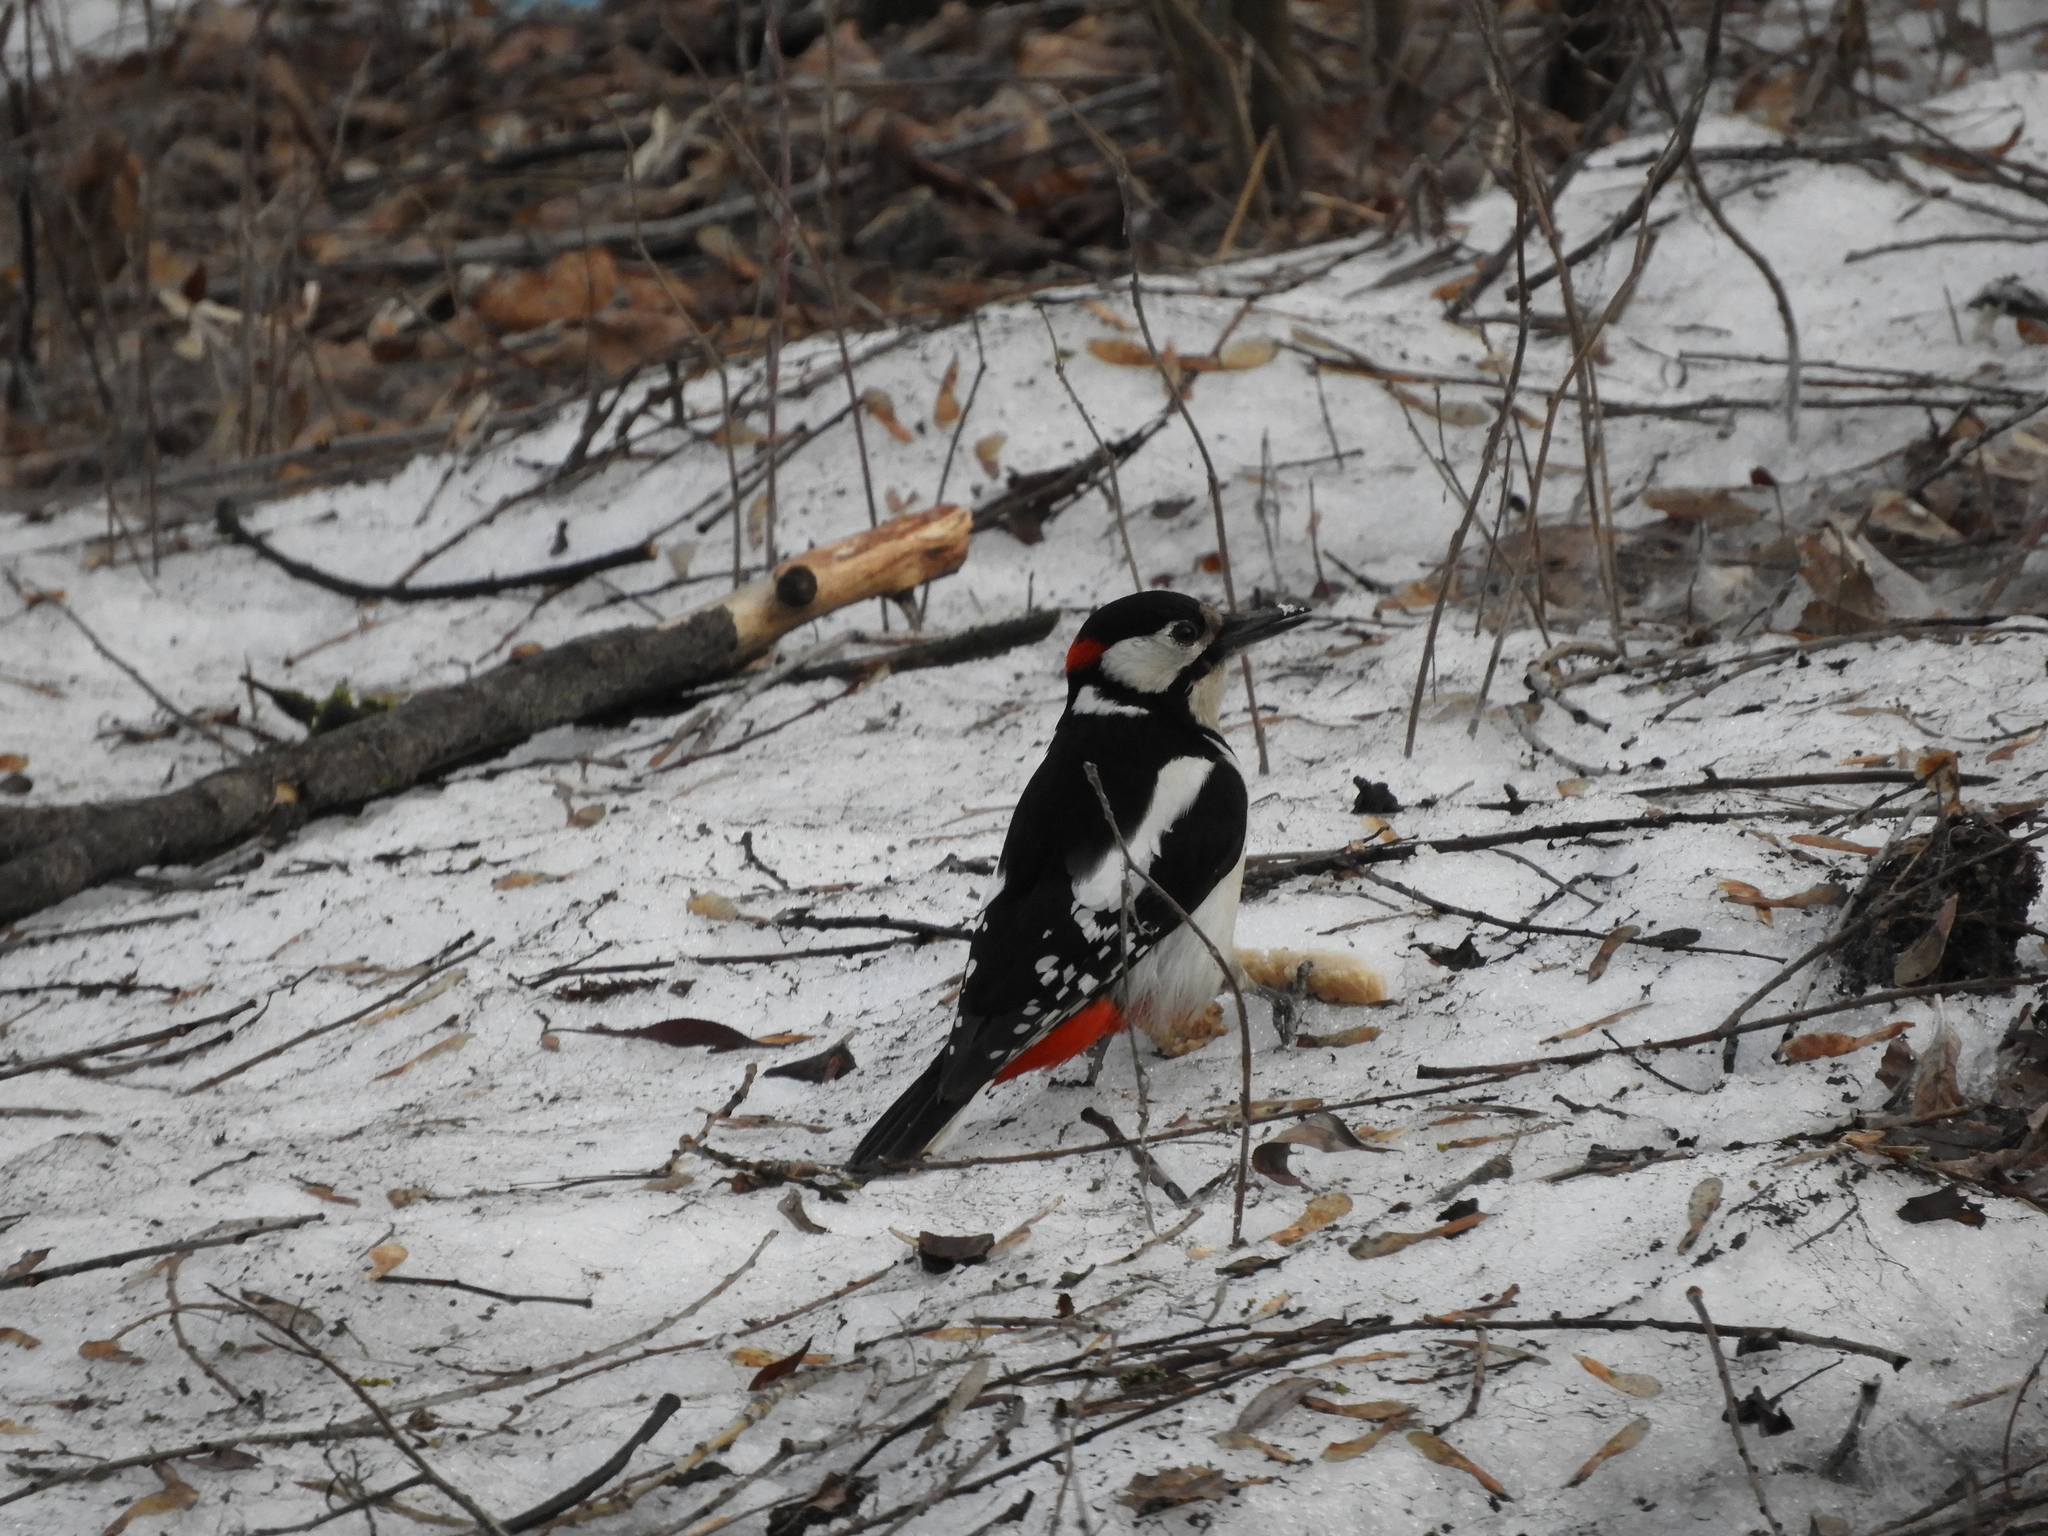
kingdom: Animalia
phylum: Chordata
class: Aves
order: Piciformes
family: Picidae
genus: Dendrocopos
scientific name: Dendrocopos major
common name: Great spotted woodpecker
